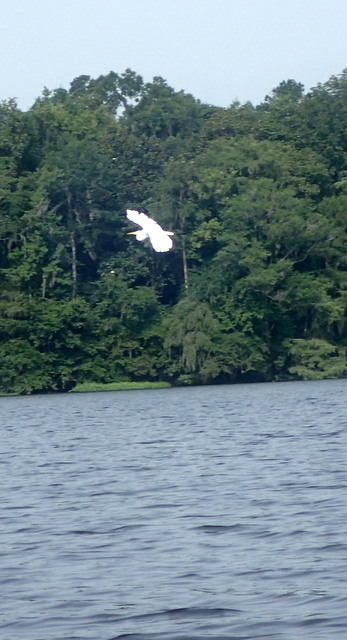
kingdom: Animalia
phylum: Chordata
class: Aves
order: Pelecaniformes
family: Ardeidae
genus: Ardea
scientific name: Ardea alba
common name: Great egret
